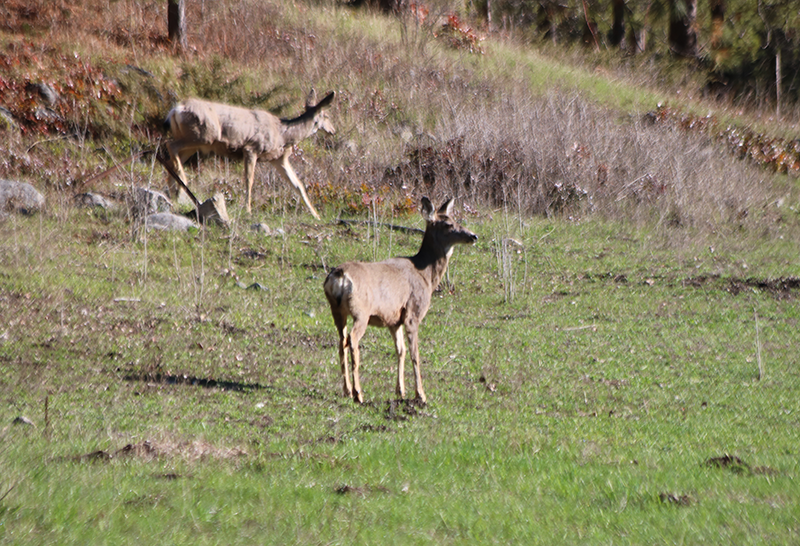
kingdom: Animalia
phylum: Chordata
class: Mammalia
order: Artiodactyla
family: Cervidae
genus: Odocoileus
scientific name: Odocoileus hemionus
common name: Mule deer
